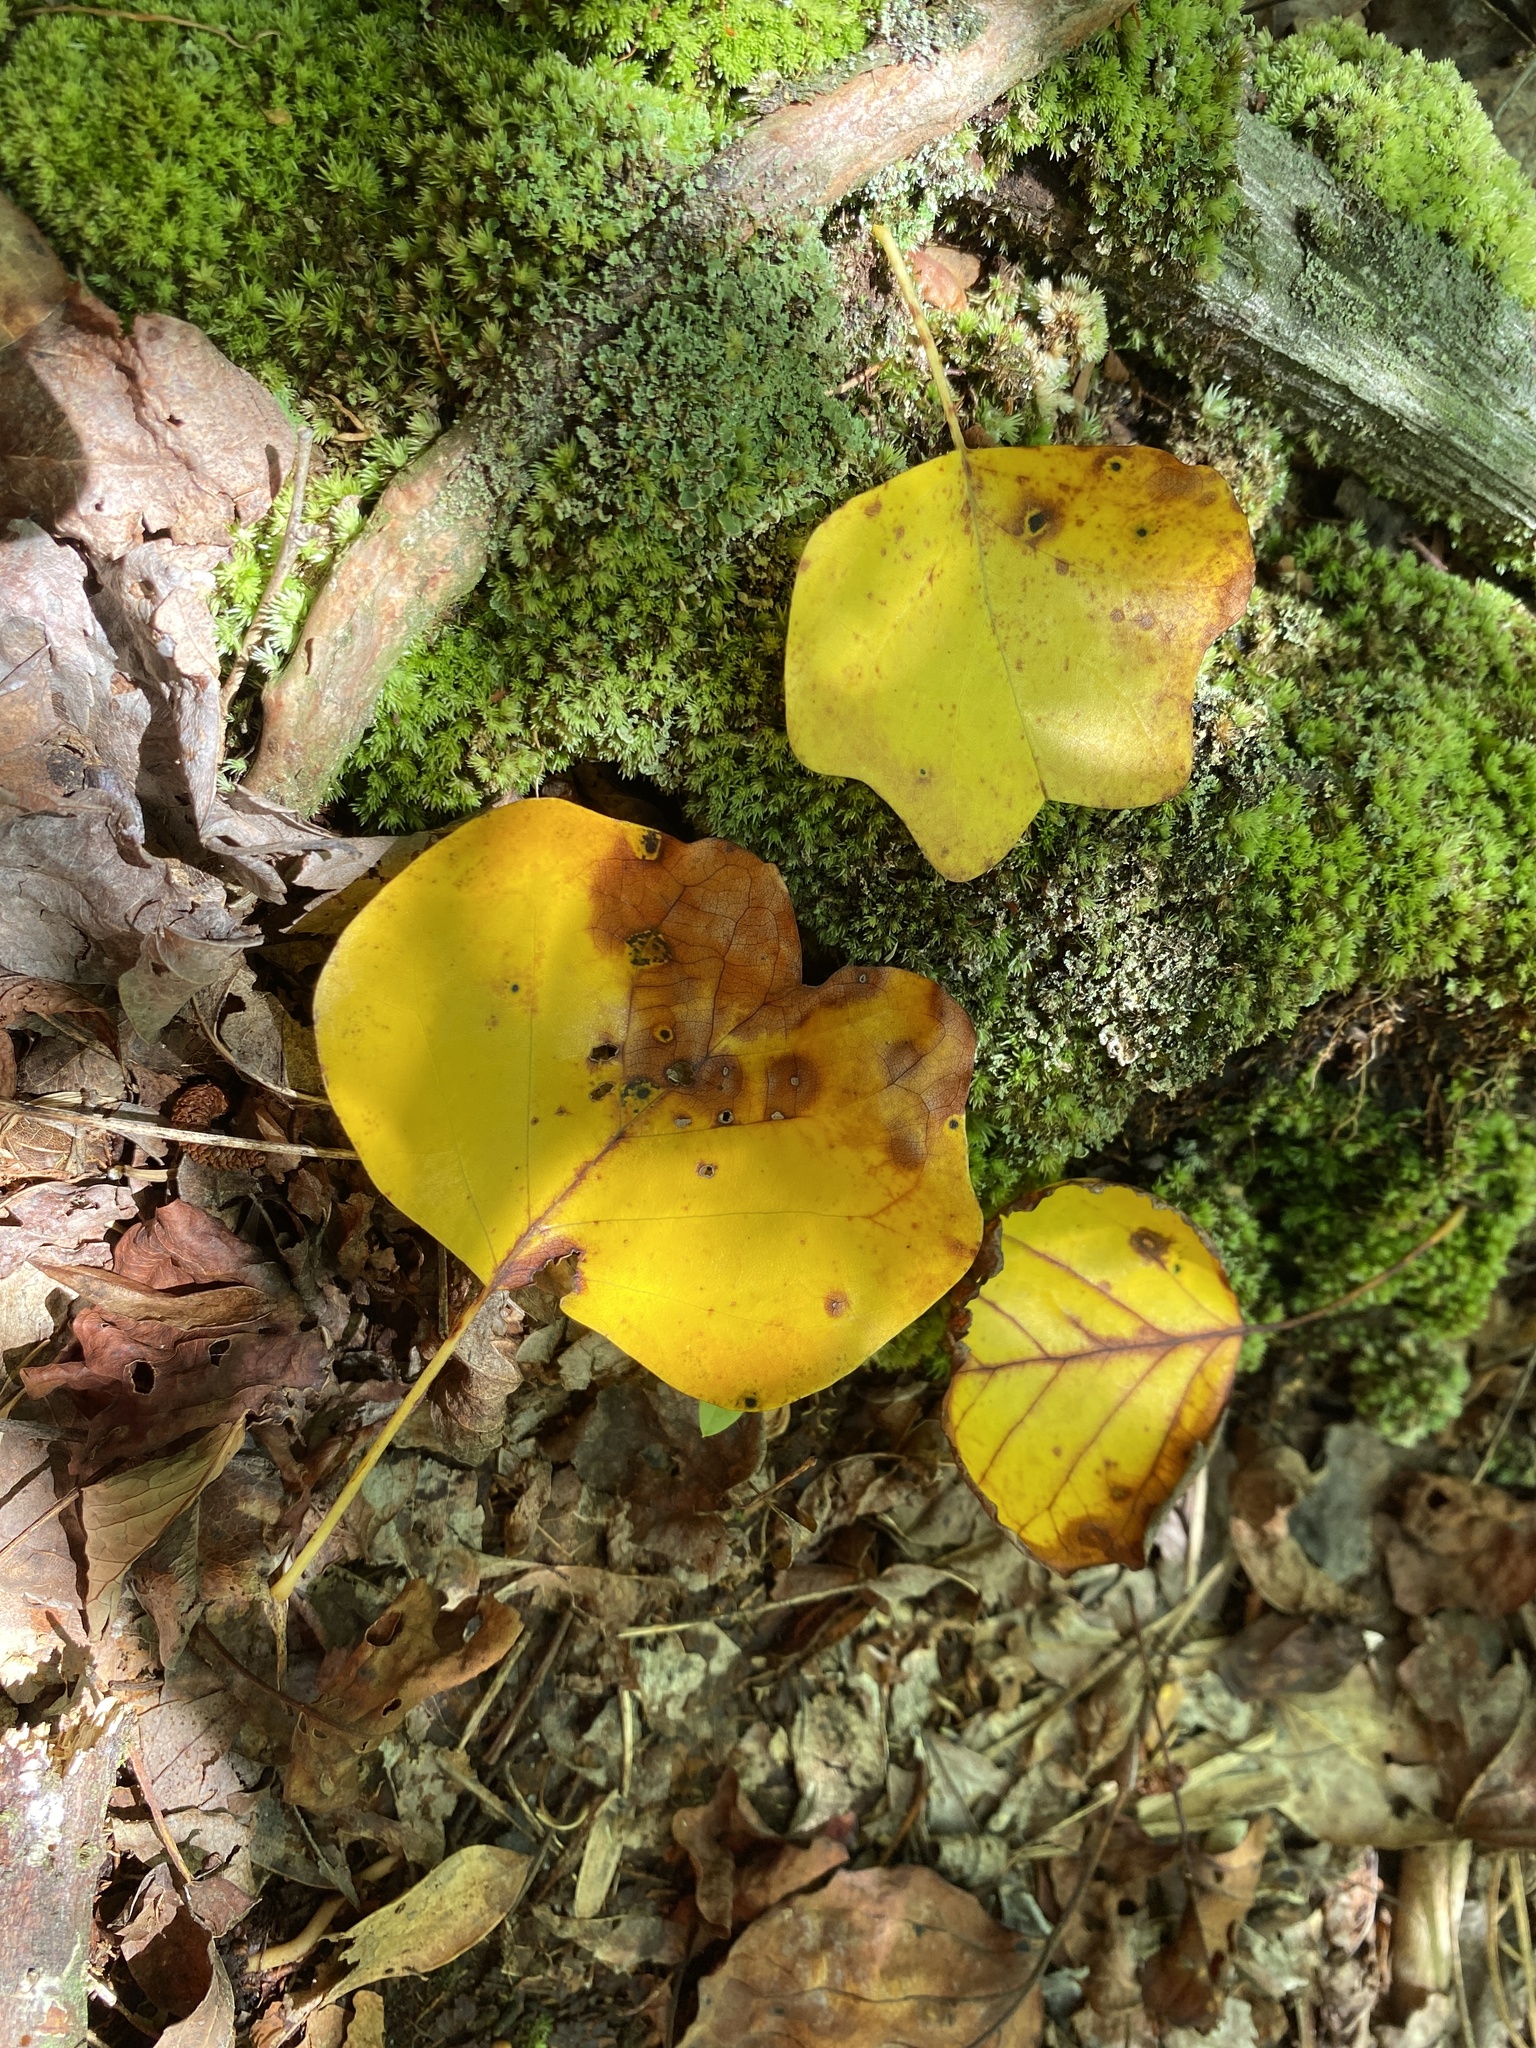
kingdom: Plantae
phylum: Tracheophyta
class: Magnoliopsida
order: Magnoliales
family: Magnoliaceae
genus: Liriodendron
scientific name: Liriodendron tulipifera
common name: Tulip tree
